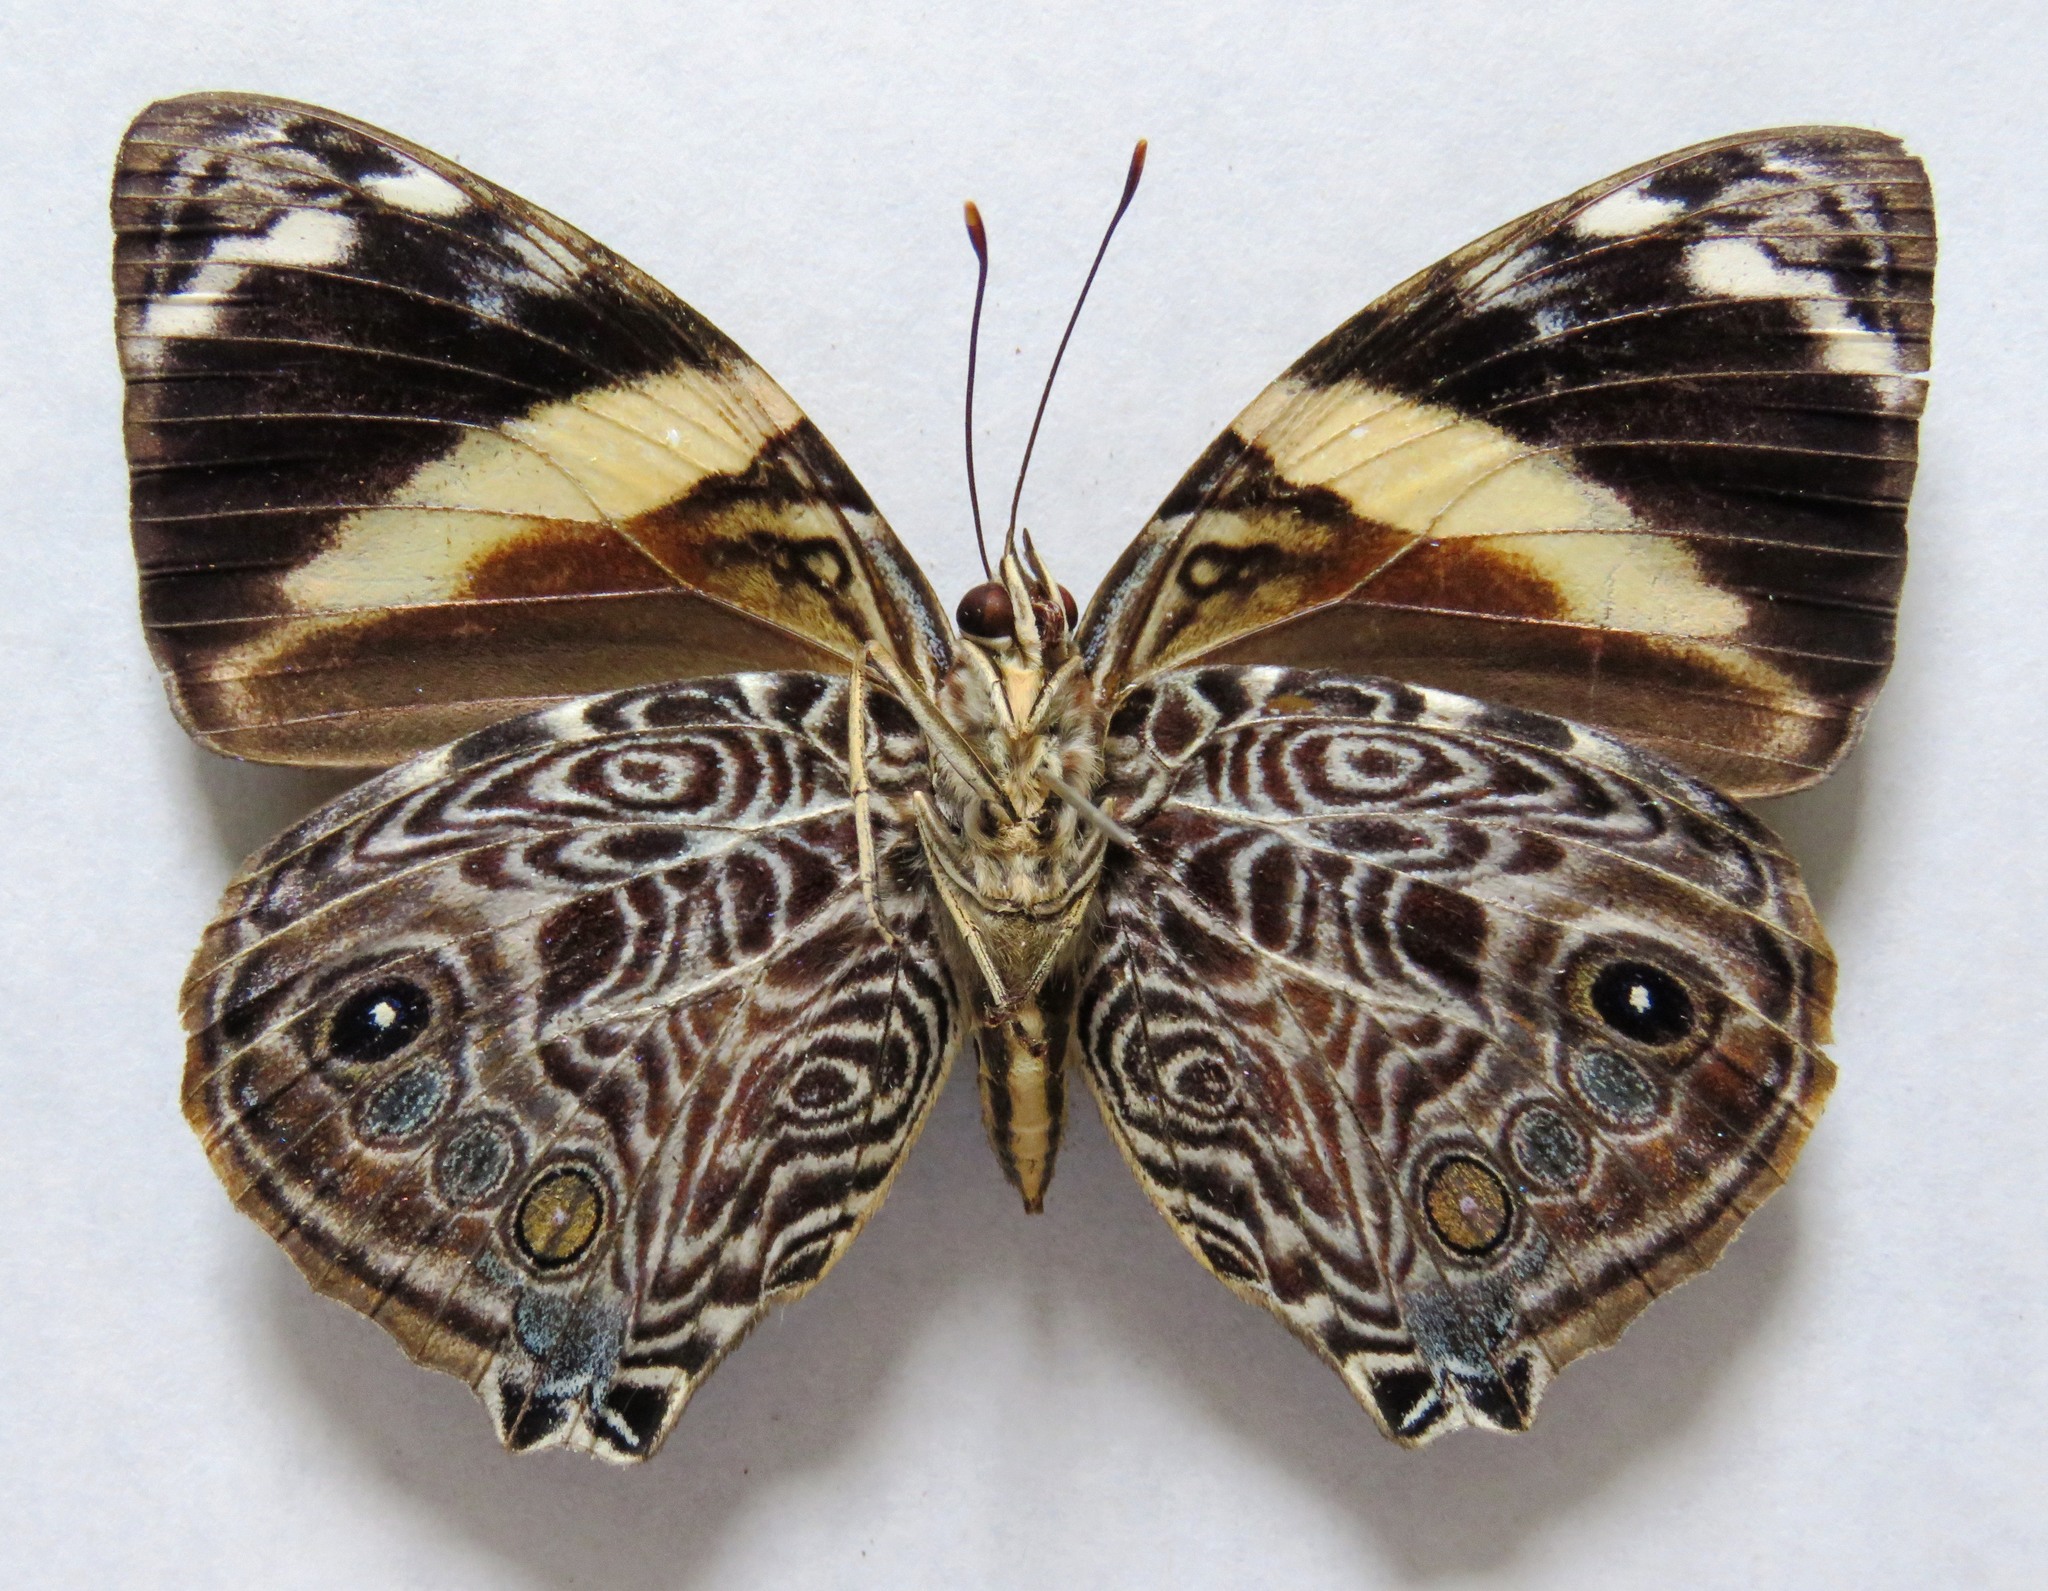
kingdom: Animalia
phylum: Arthropoda
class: Insecta
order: Lepidoptera
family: Nymphalidae
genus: Smyrna
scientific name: Smyrna blomfildia
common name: Blomfild's beauty
